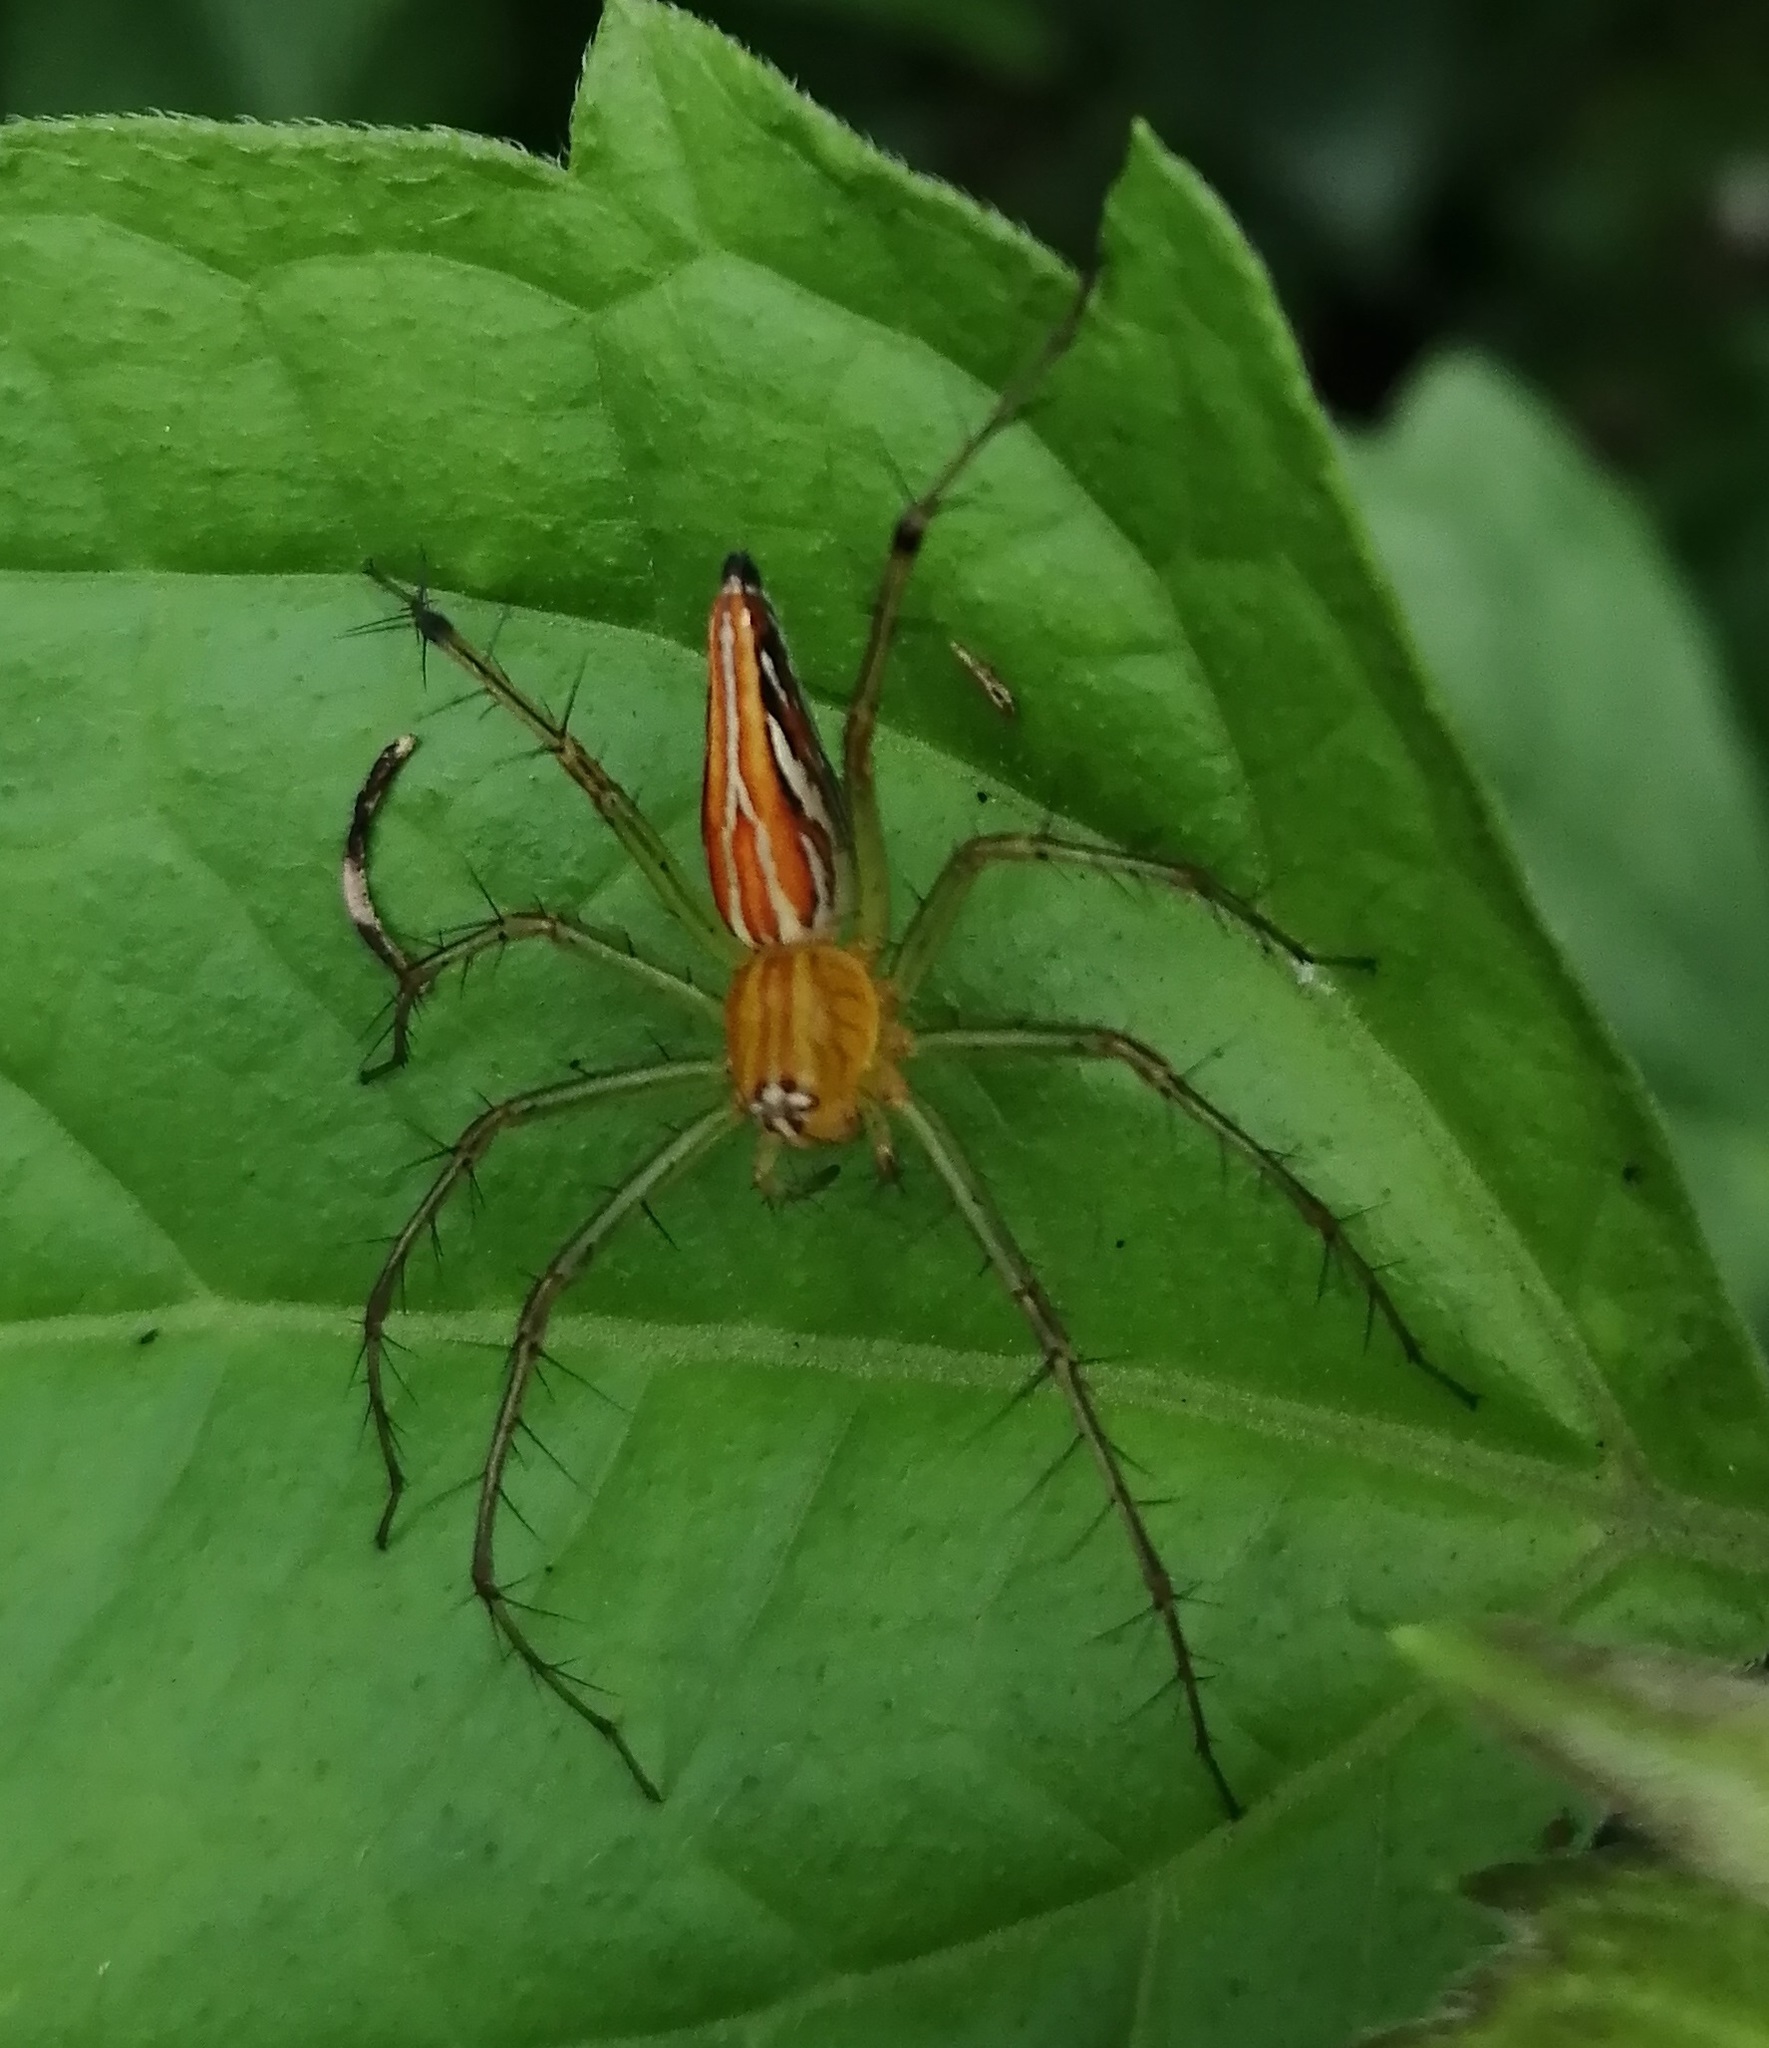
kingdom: Animalia
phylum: Arthropoda
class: Arachnida
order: Araneae
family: Oxyopidae
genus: Oxyopes
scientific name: Oxyopes
